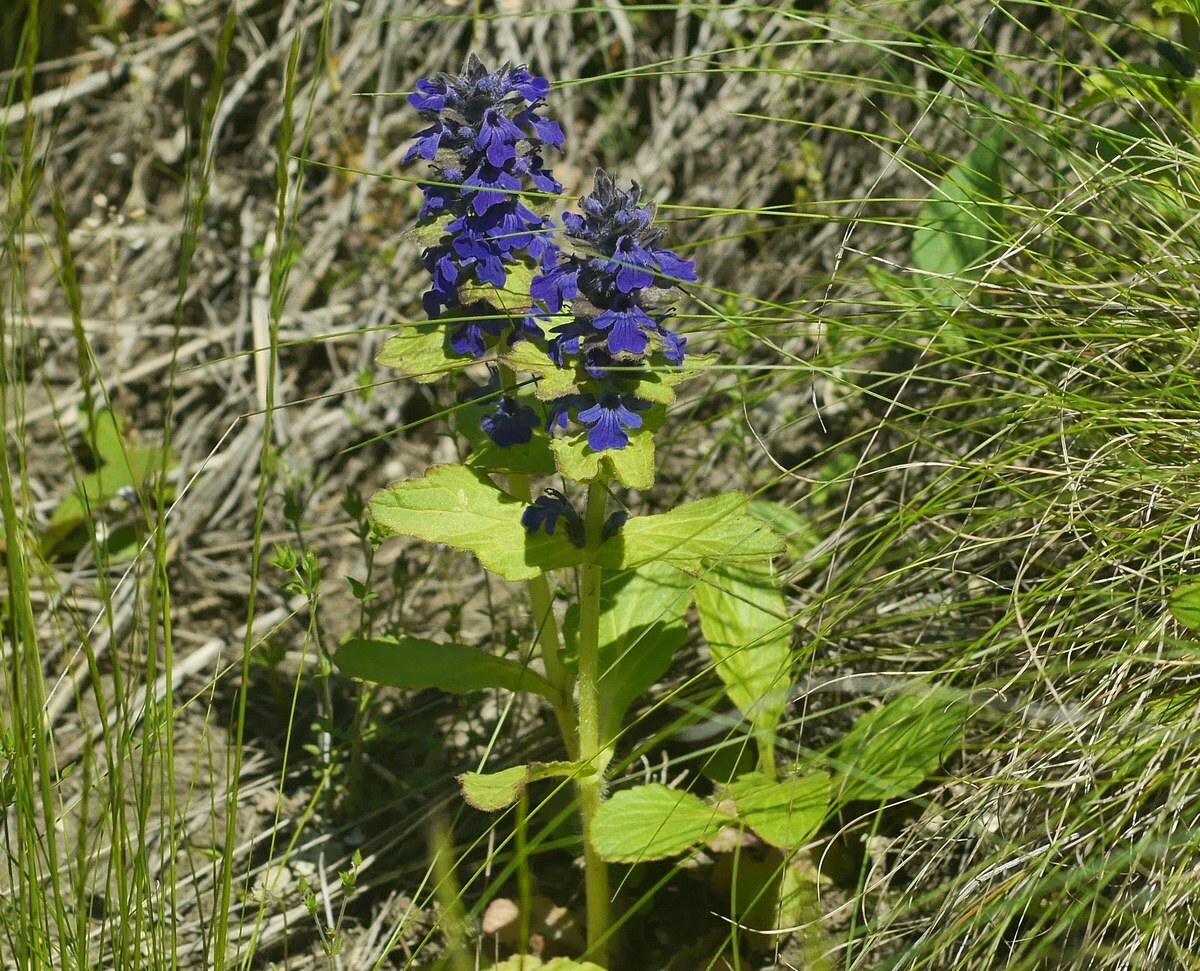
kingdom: Plantae
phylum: Tracheophyta
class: Magnoliopsida
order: Lamiales
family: Lamiaceae
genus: Ajuga
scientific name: Ajuga genevensis
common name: Blue bugle
